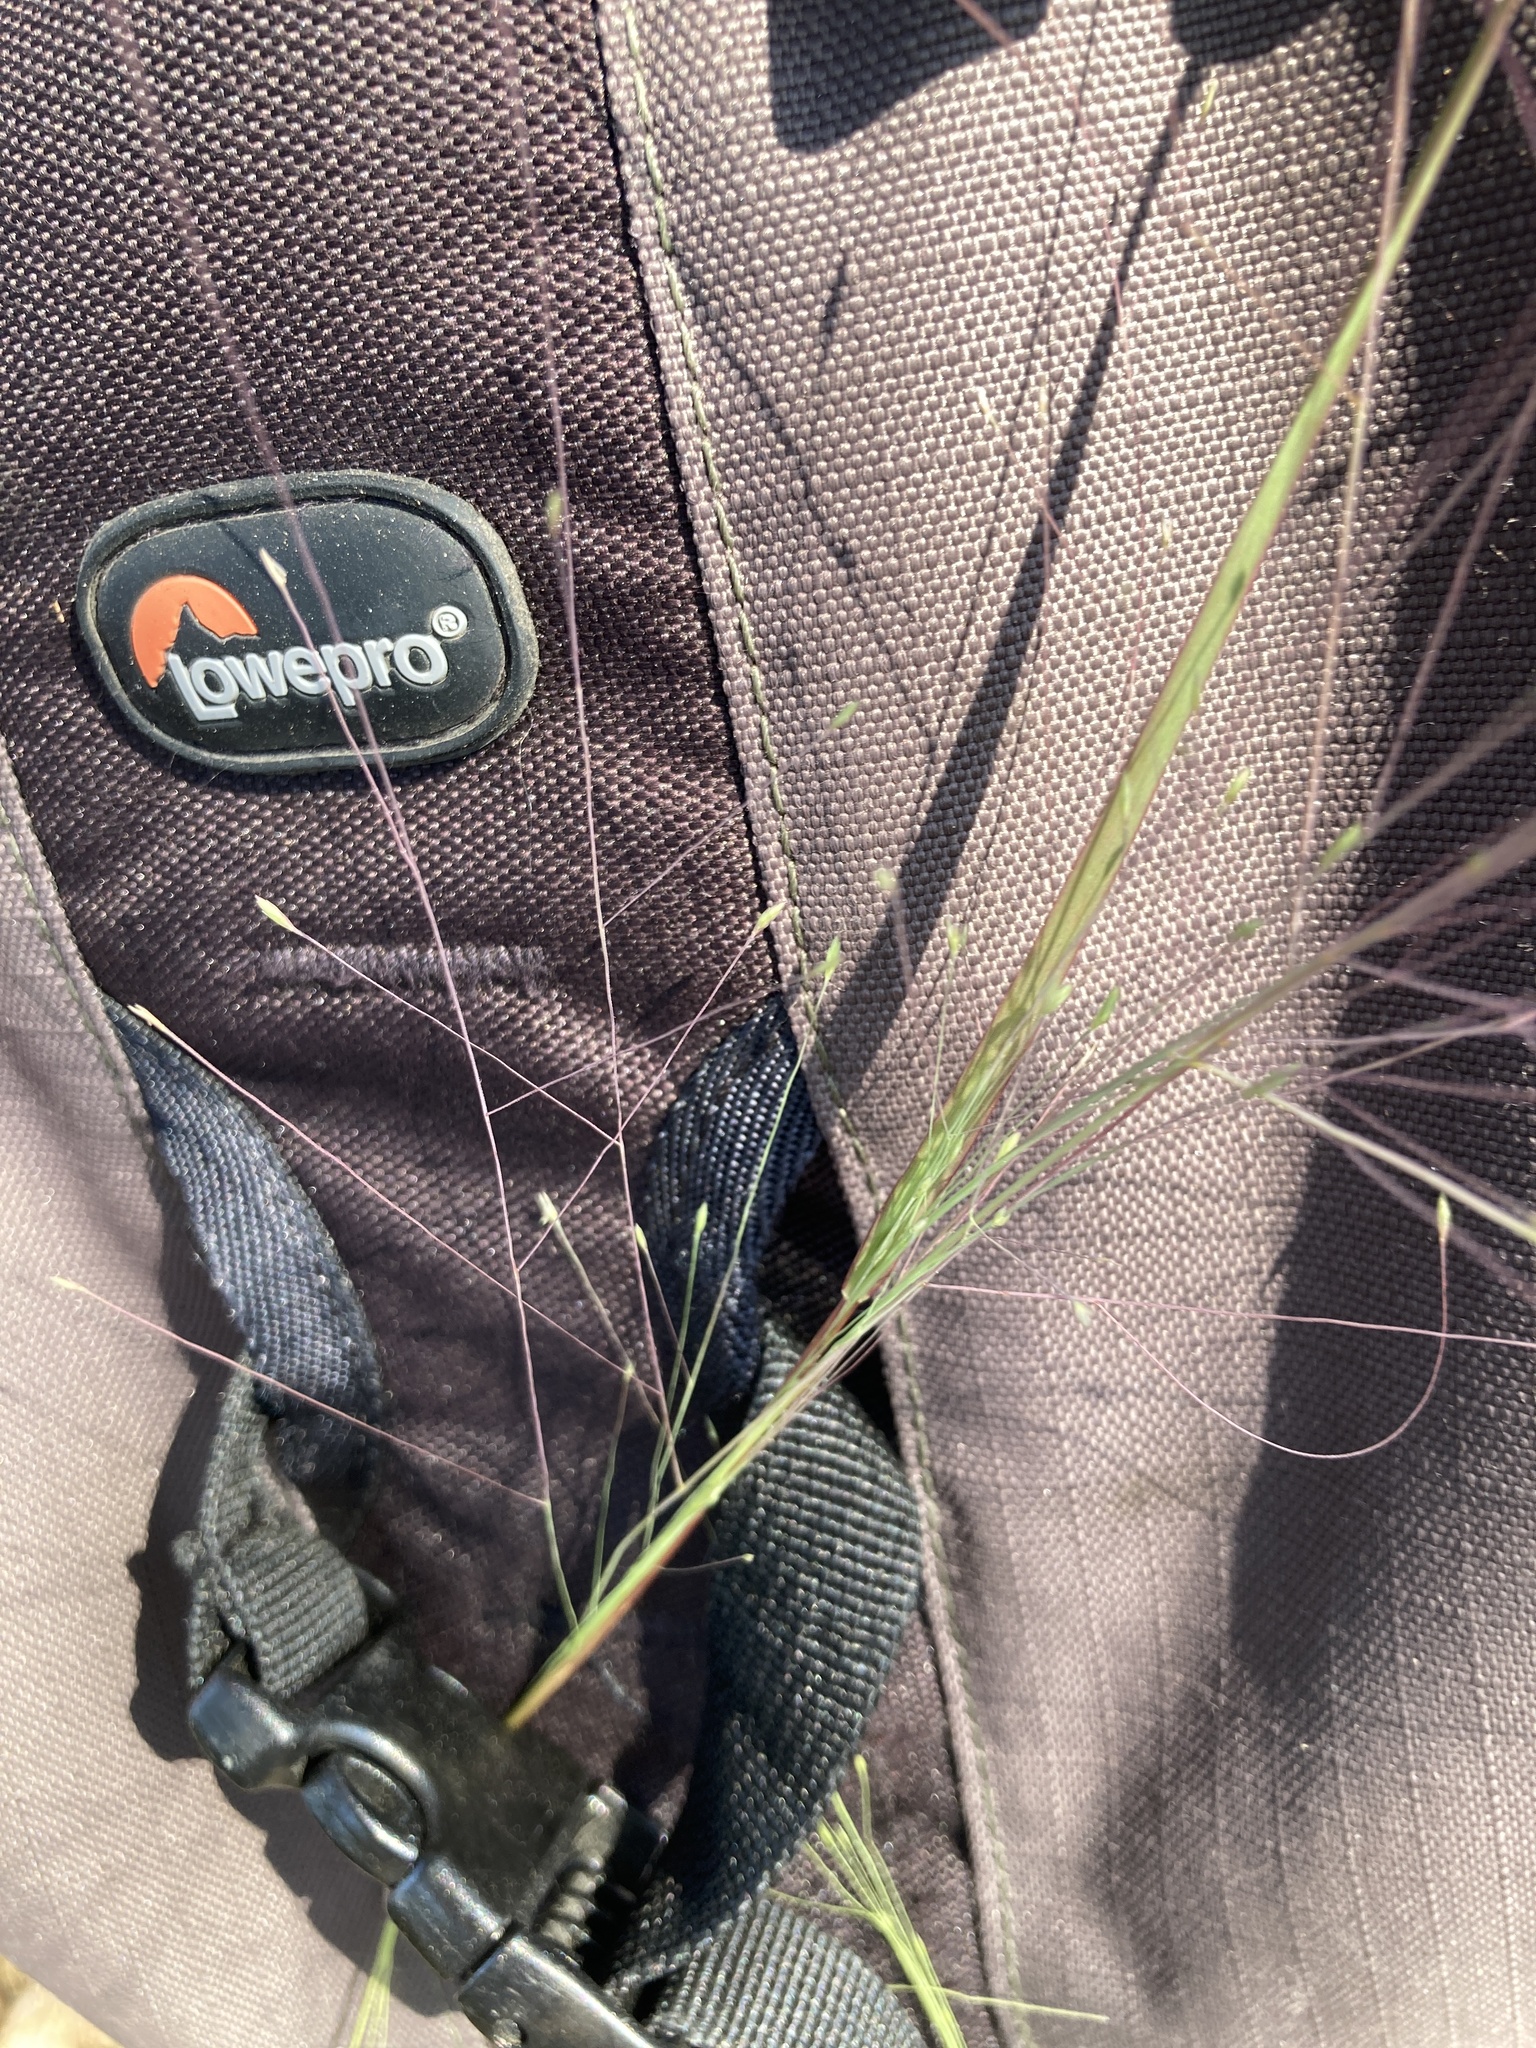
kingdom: Plantae
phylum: Tracheophyta
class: Liliopsida
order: Poales
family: Poaceae
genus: Eragrostis
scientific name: Eragrostis elliottii
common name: Elliott's love grass
